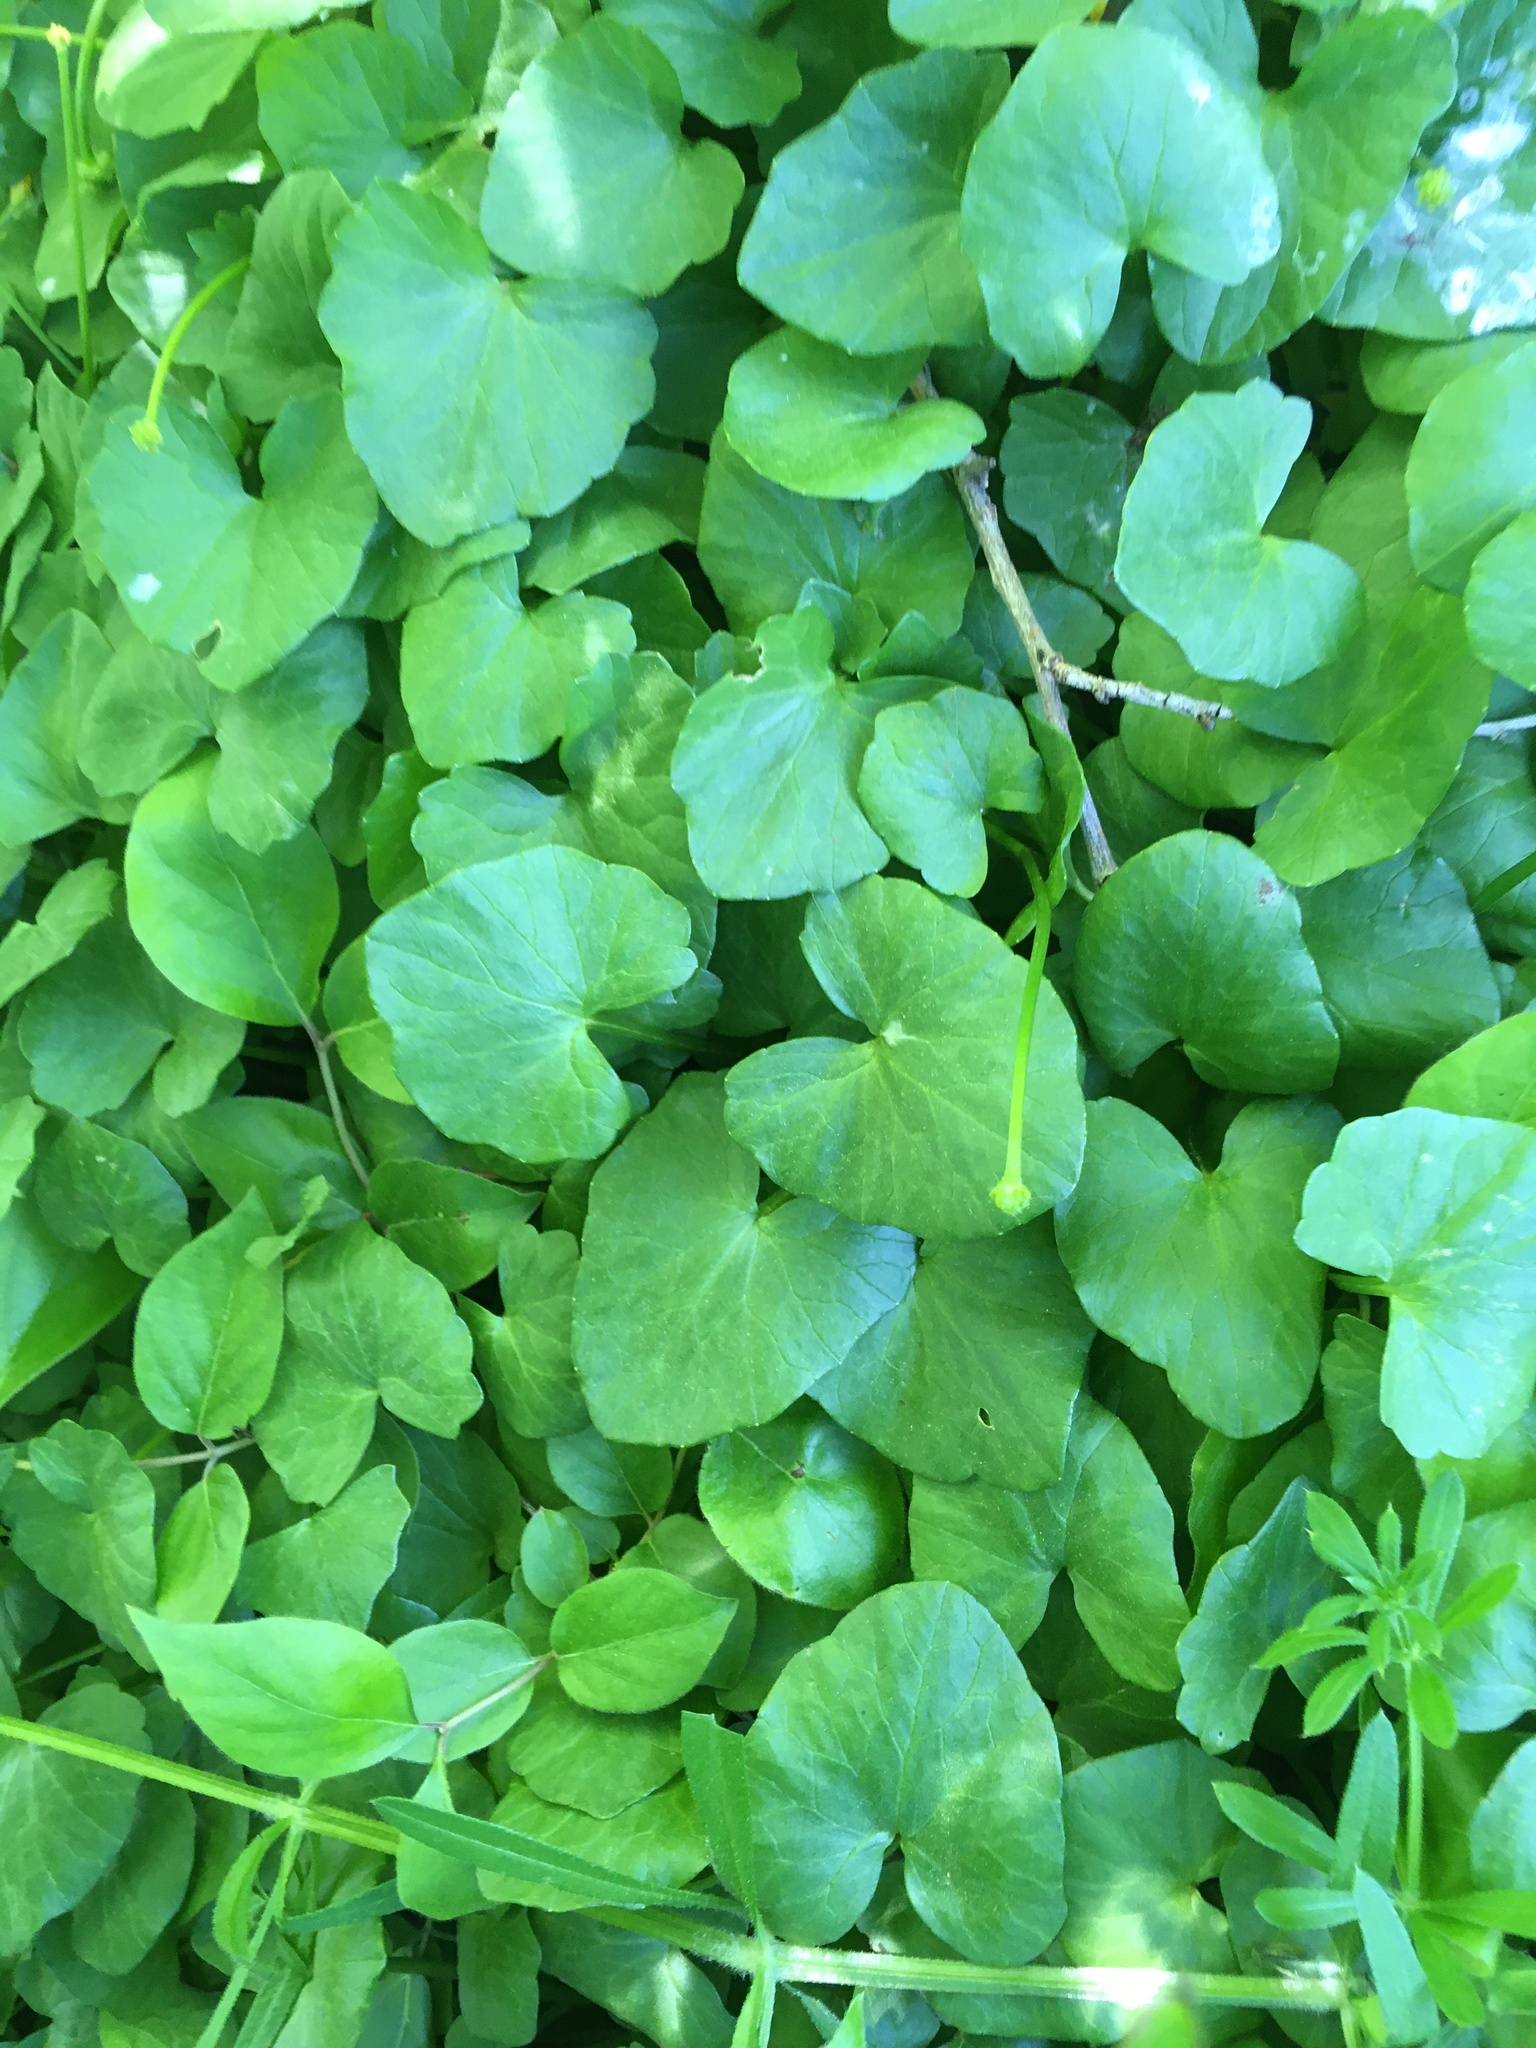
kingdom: Plantae
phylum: Tracheophyta
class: Magnoliopsida
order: Ranunculales
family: Ranunculaceae
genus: Ficaria
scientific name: Ficaria verna
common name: Lesser celandine
